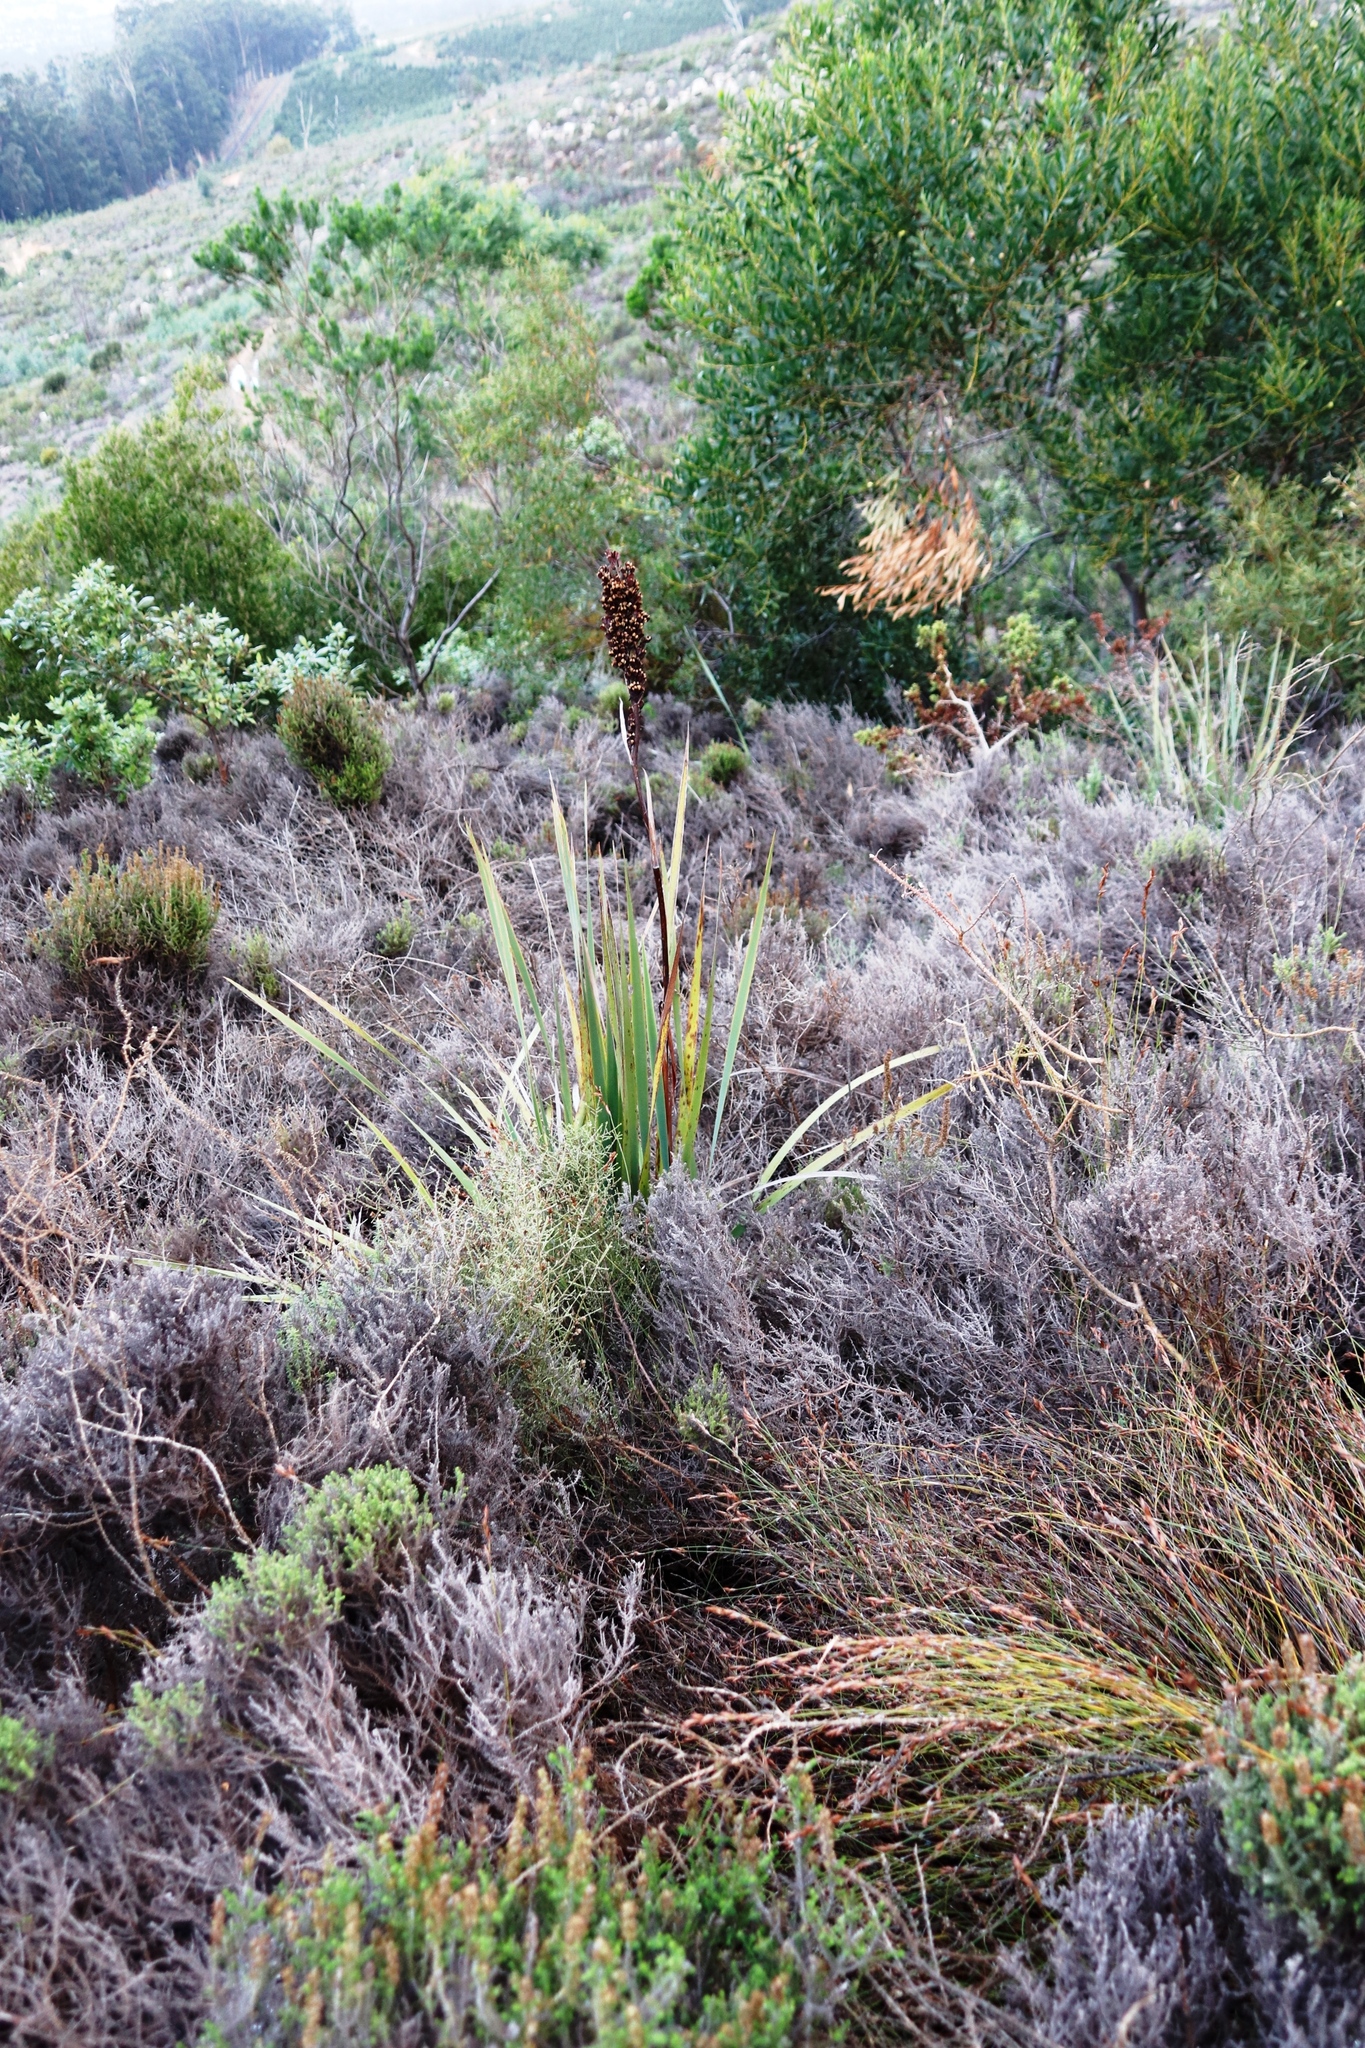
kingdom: Plantae
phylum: Tracheophyta
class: Liliopsida
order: Asparagales
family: Iridaceae
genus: Aristea
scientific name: Aristea capitata
